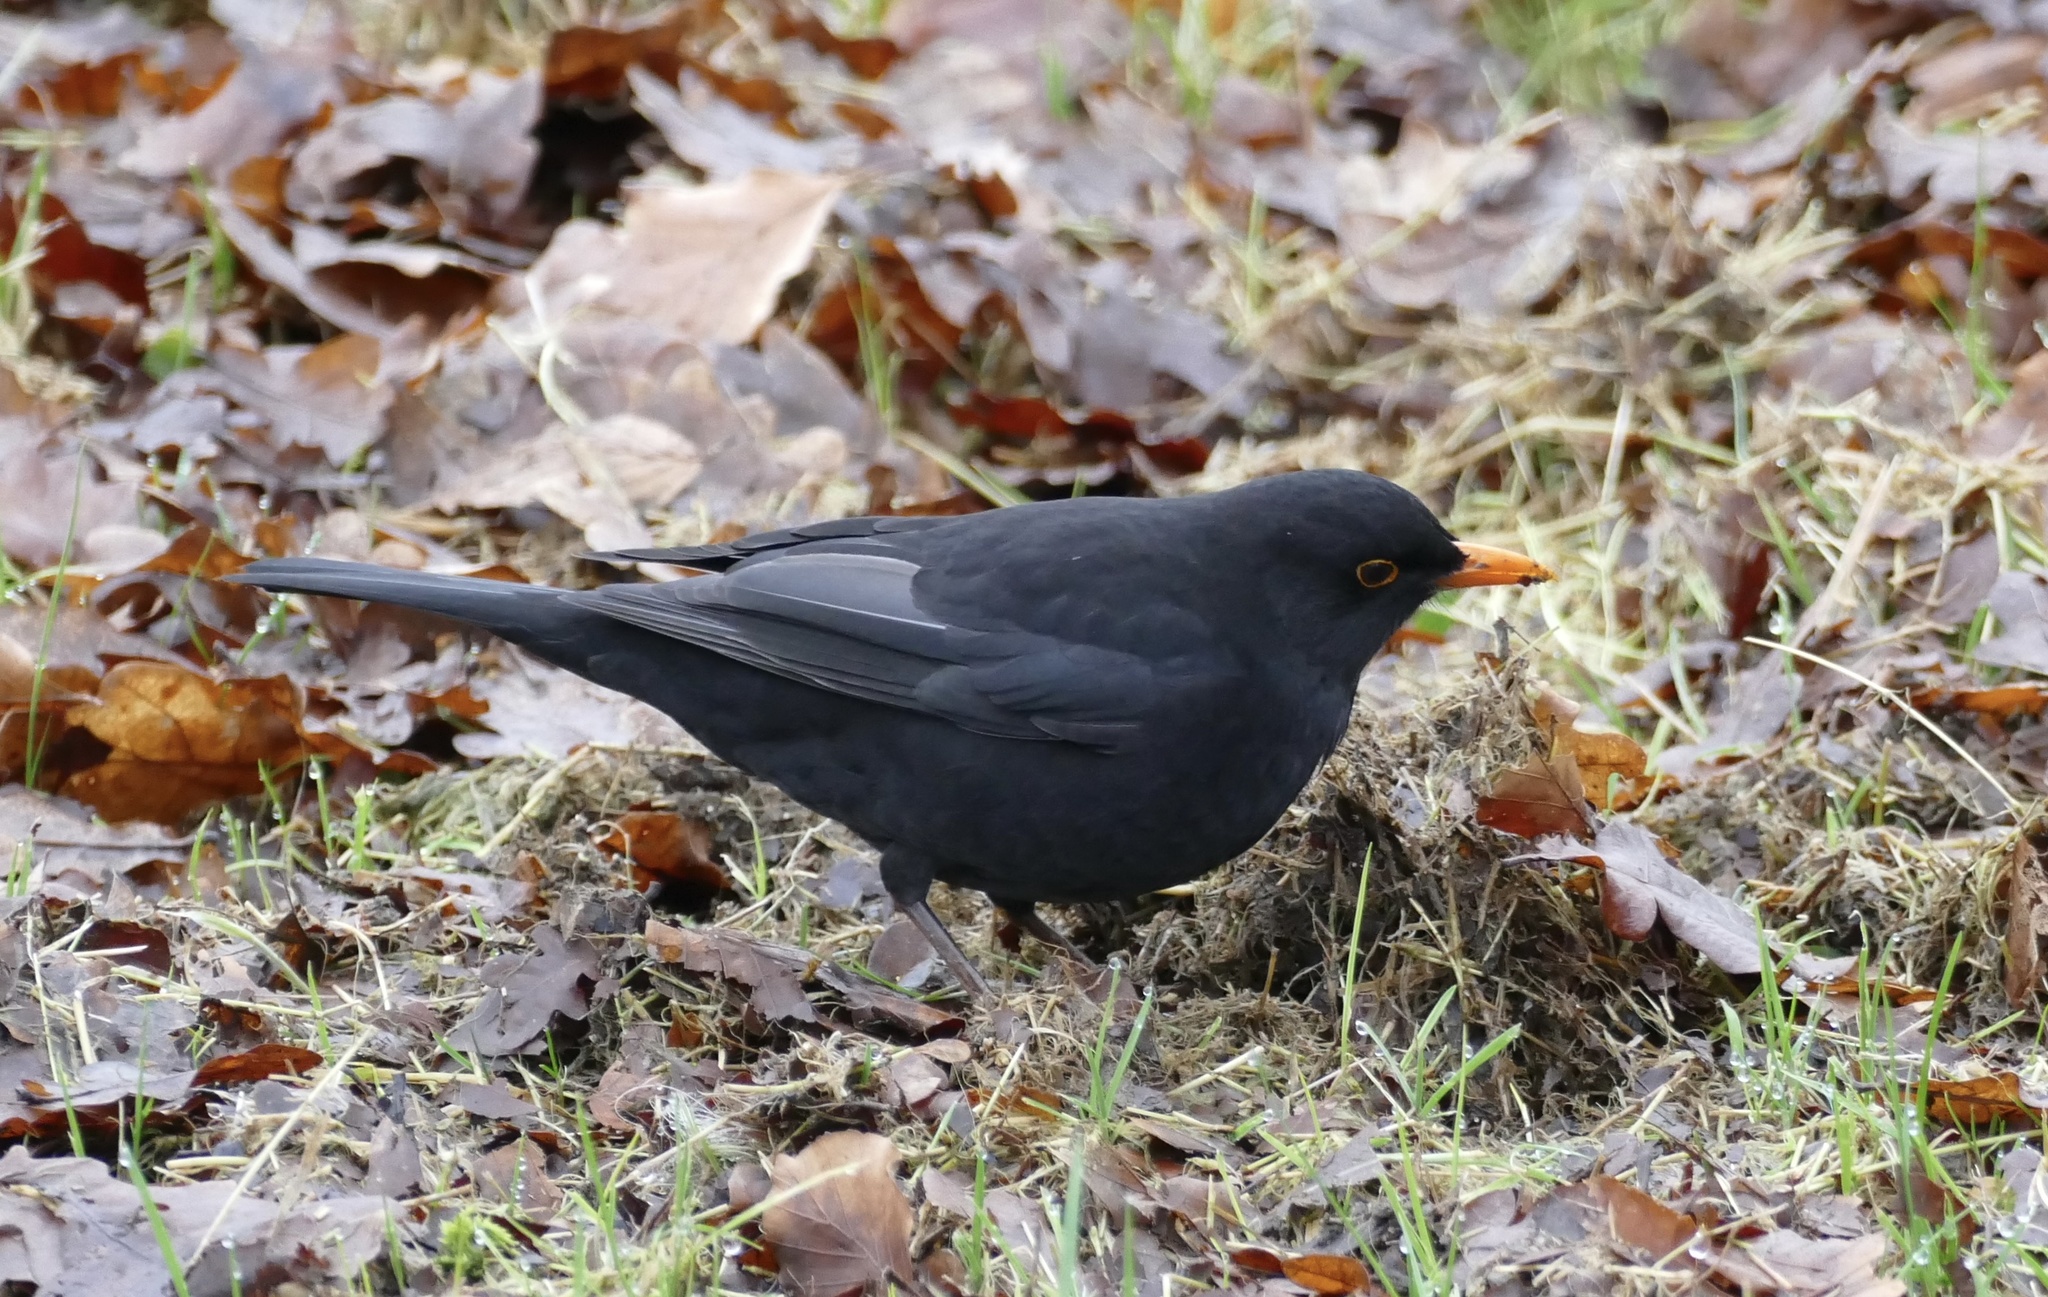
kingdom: Animalia
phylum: Chordata
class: Aves
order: Passeriformes
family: Turdidae
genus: Turdus
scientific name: Turdus merula
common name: Common blackbird
